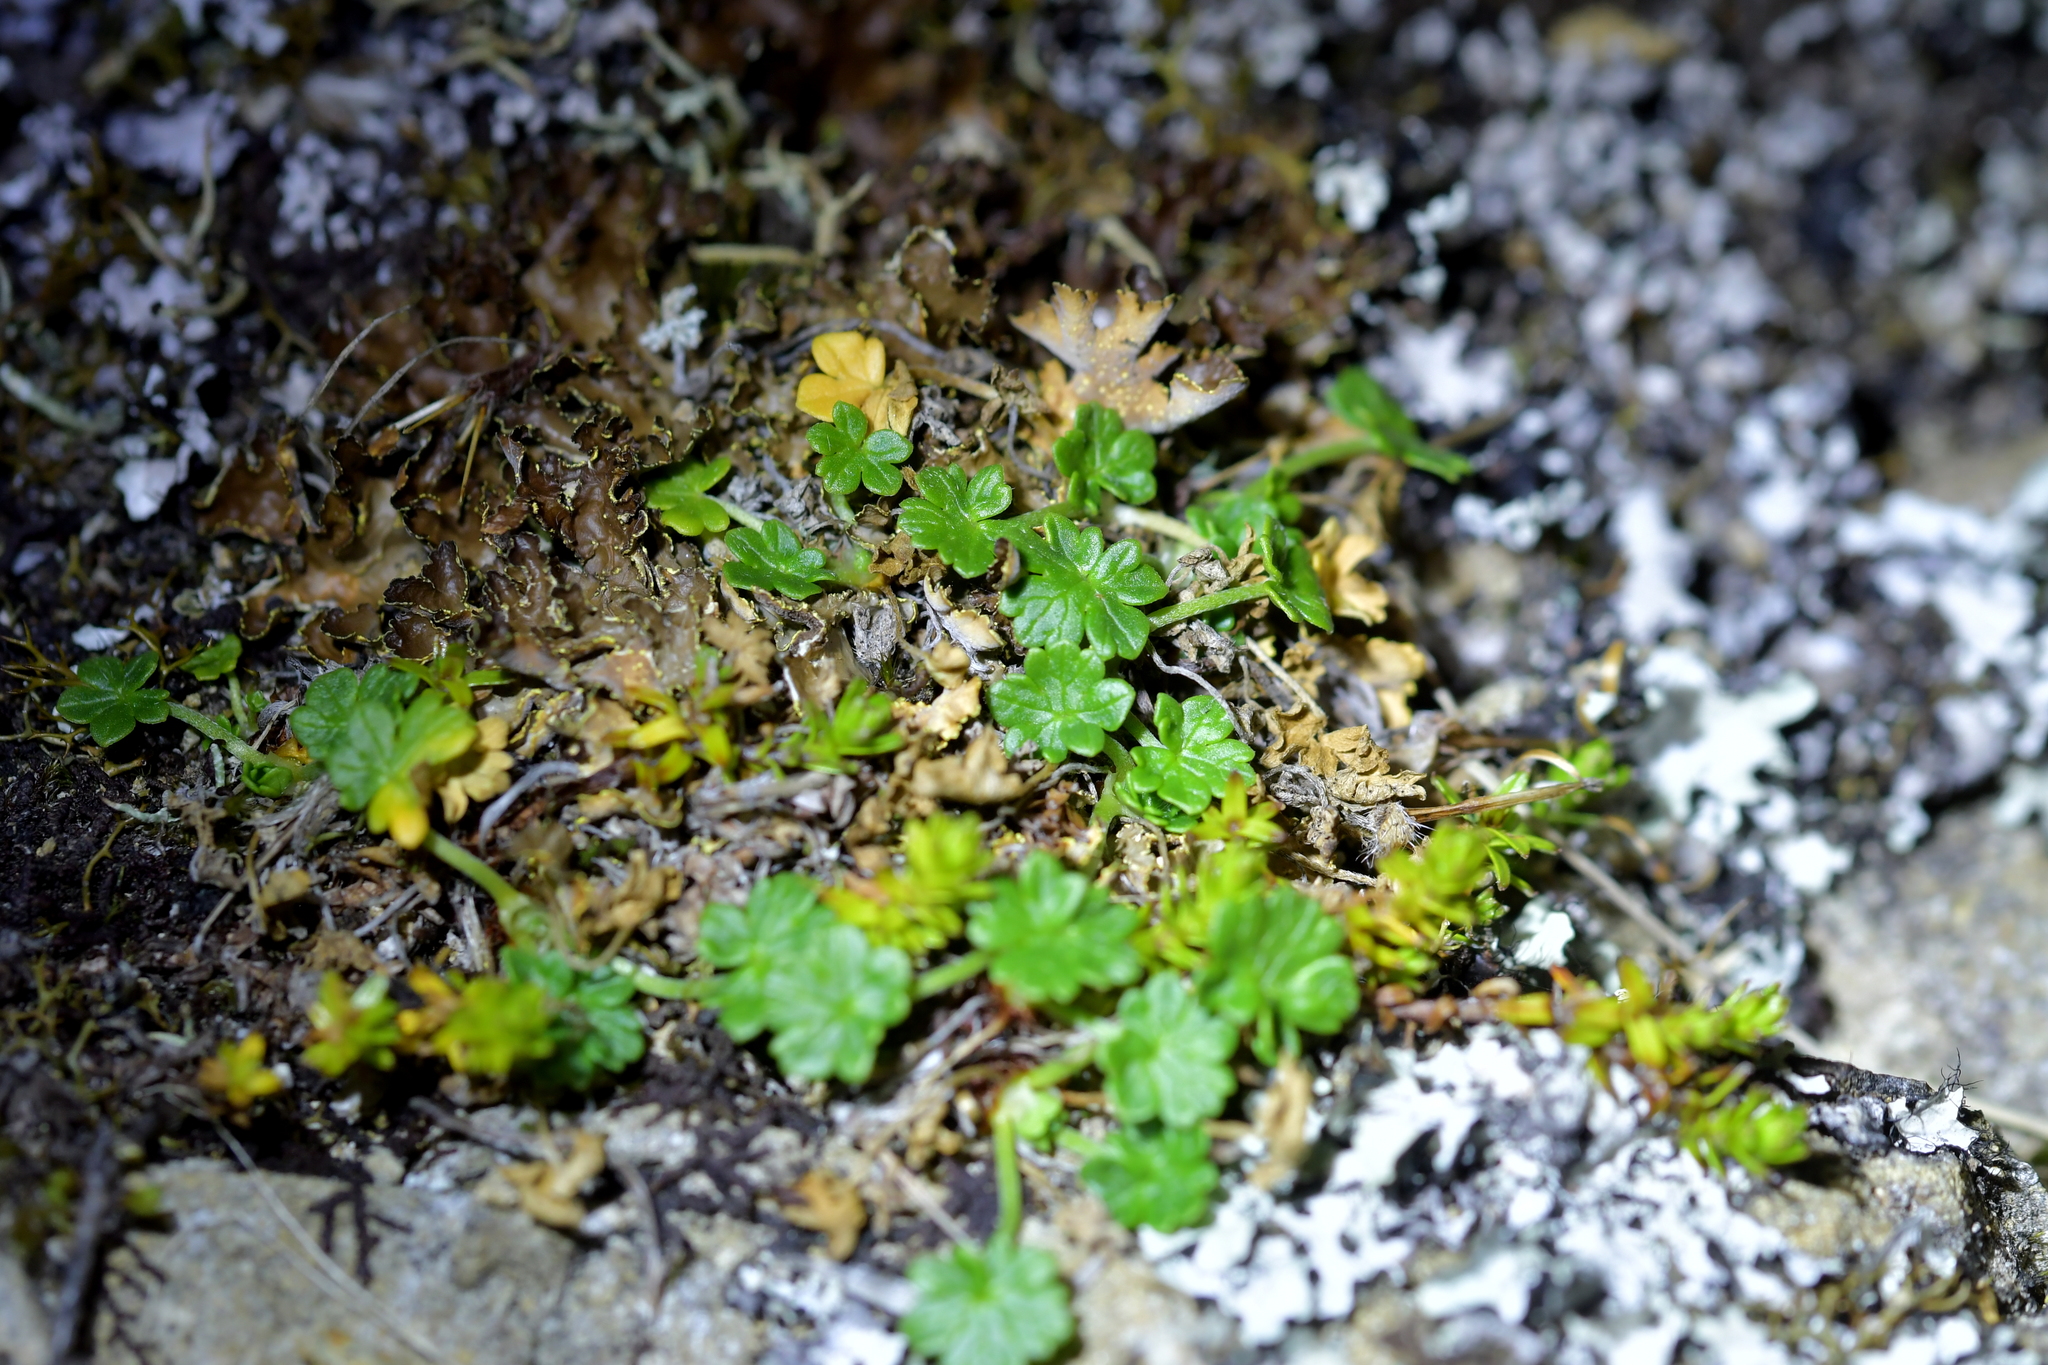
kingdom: Plantae
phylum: Tracheophyta
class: Magnoliopsida
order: Geraniales
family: Geraniaceae
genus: Geranium
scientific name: Geranium brevicaule
